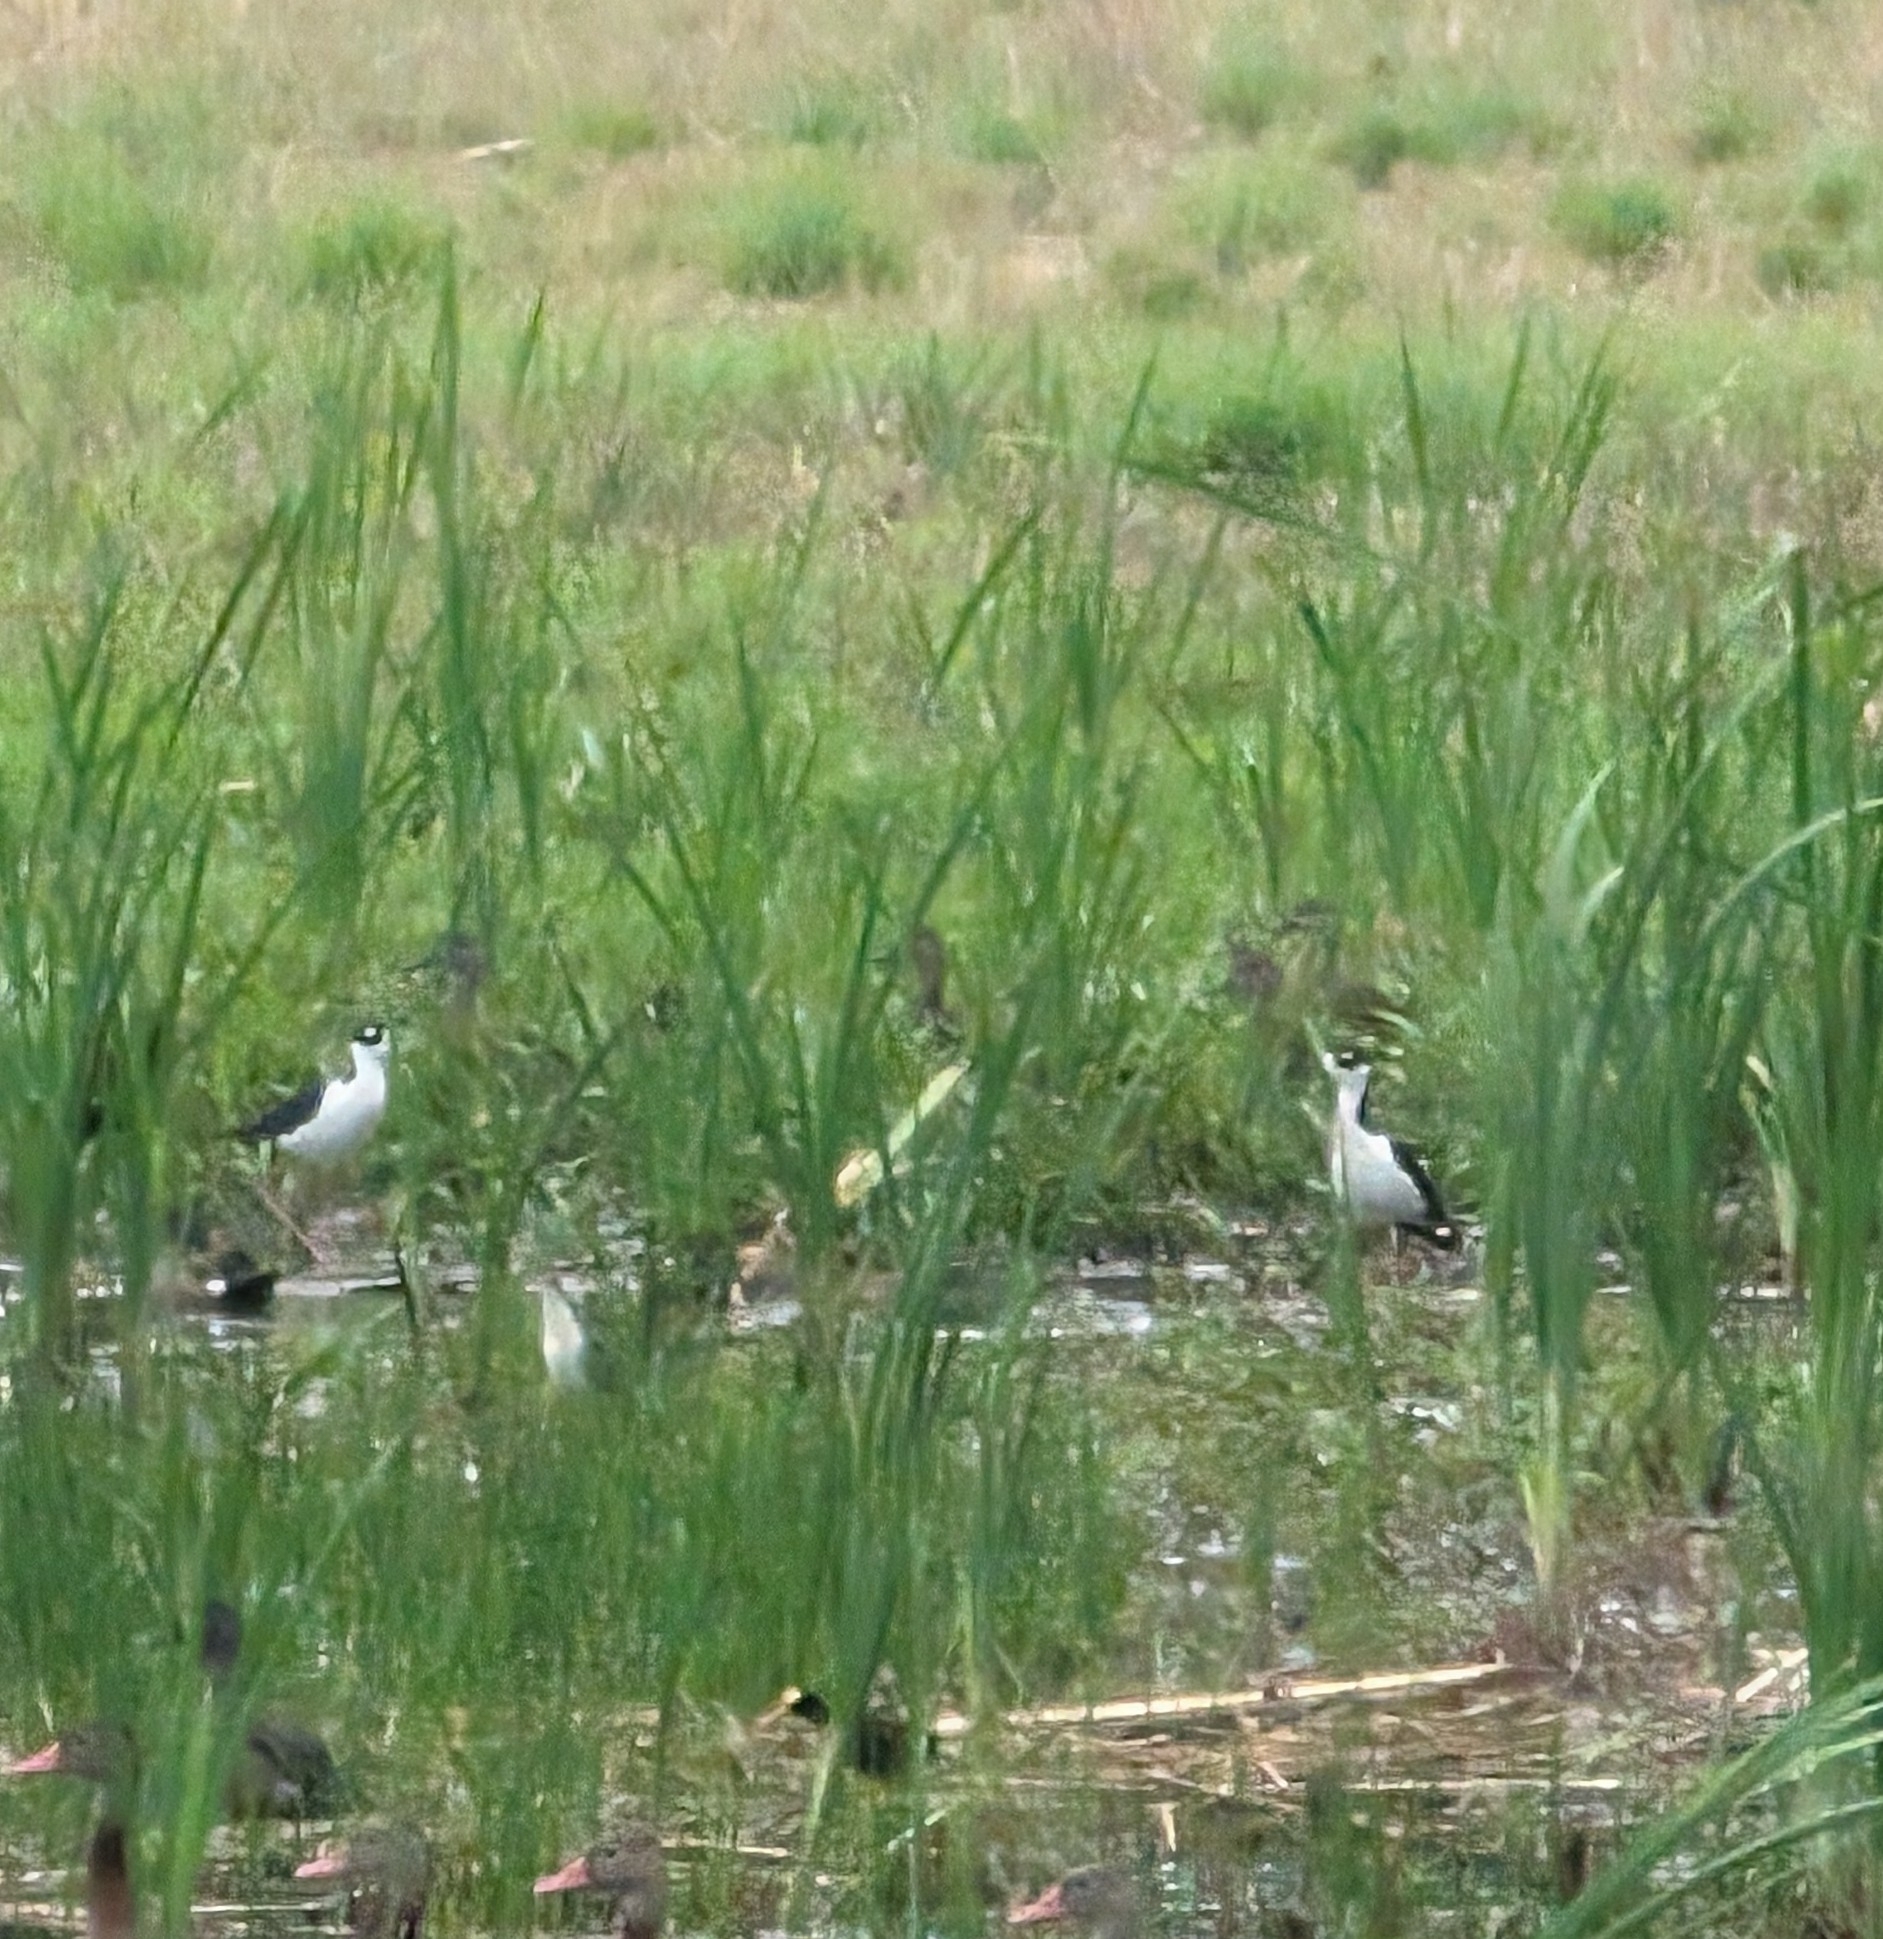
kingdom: Animalia
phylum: Chordata
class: Aves
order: Charadriiformes
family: Recurvirostridae
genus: Himantopus
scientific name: Himantopus mexicanus
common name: Black-necked stilt
